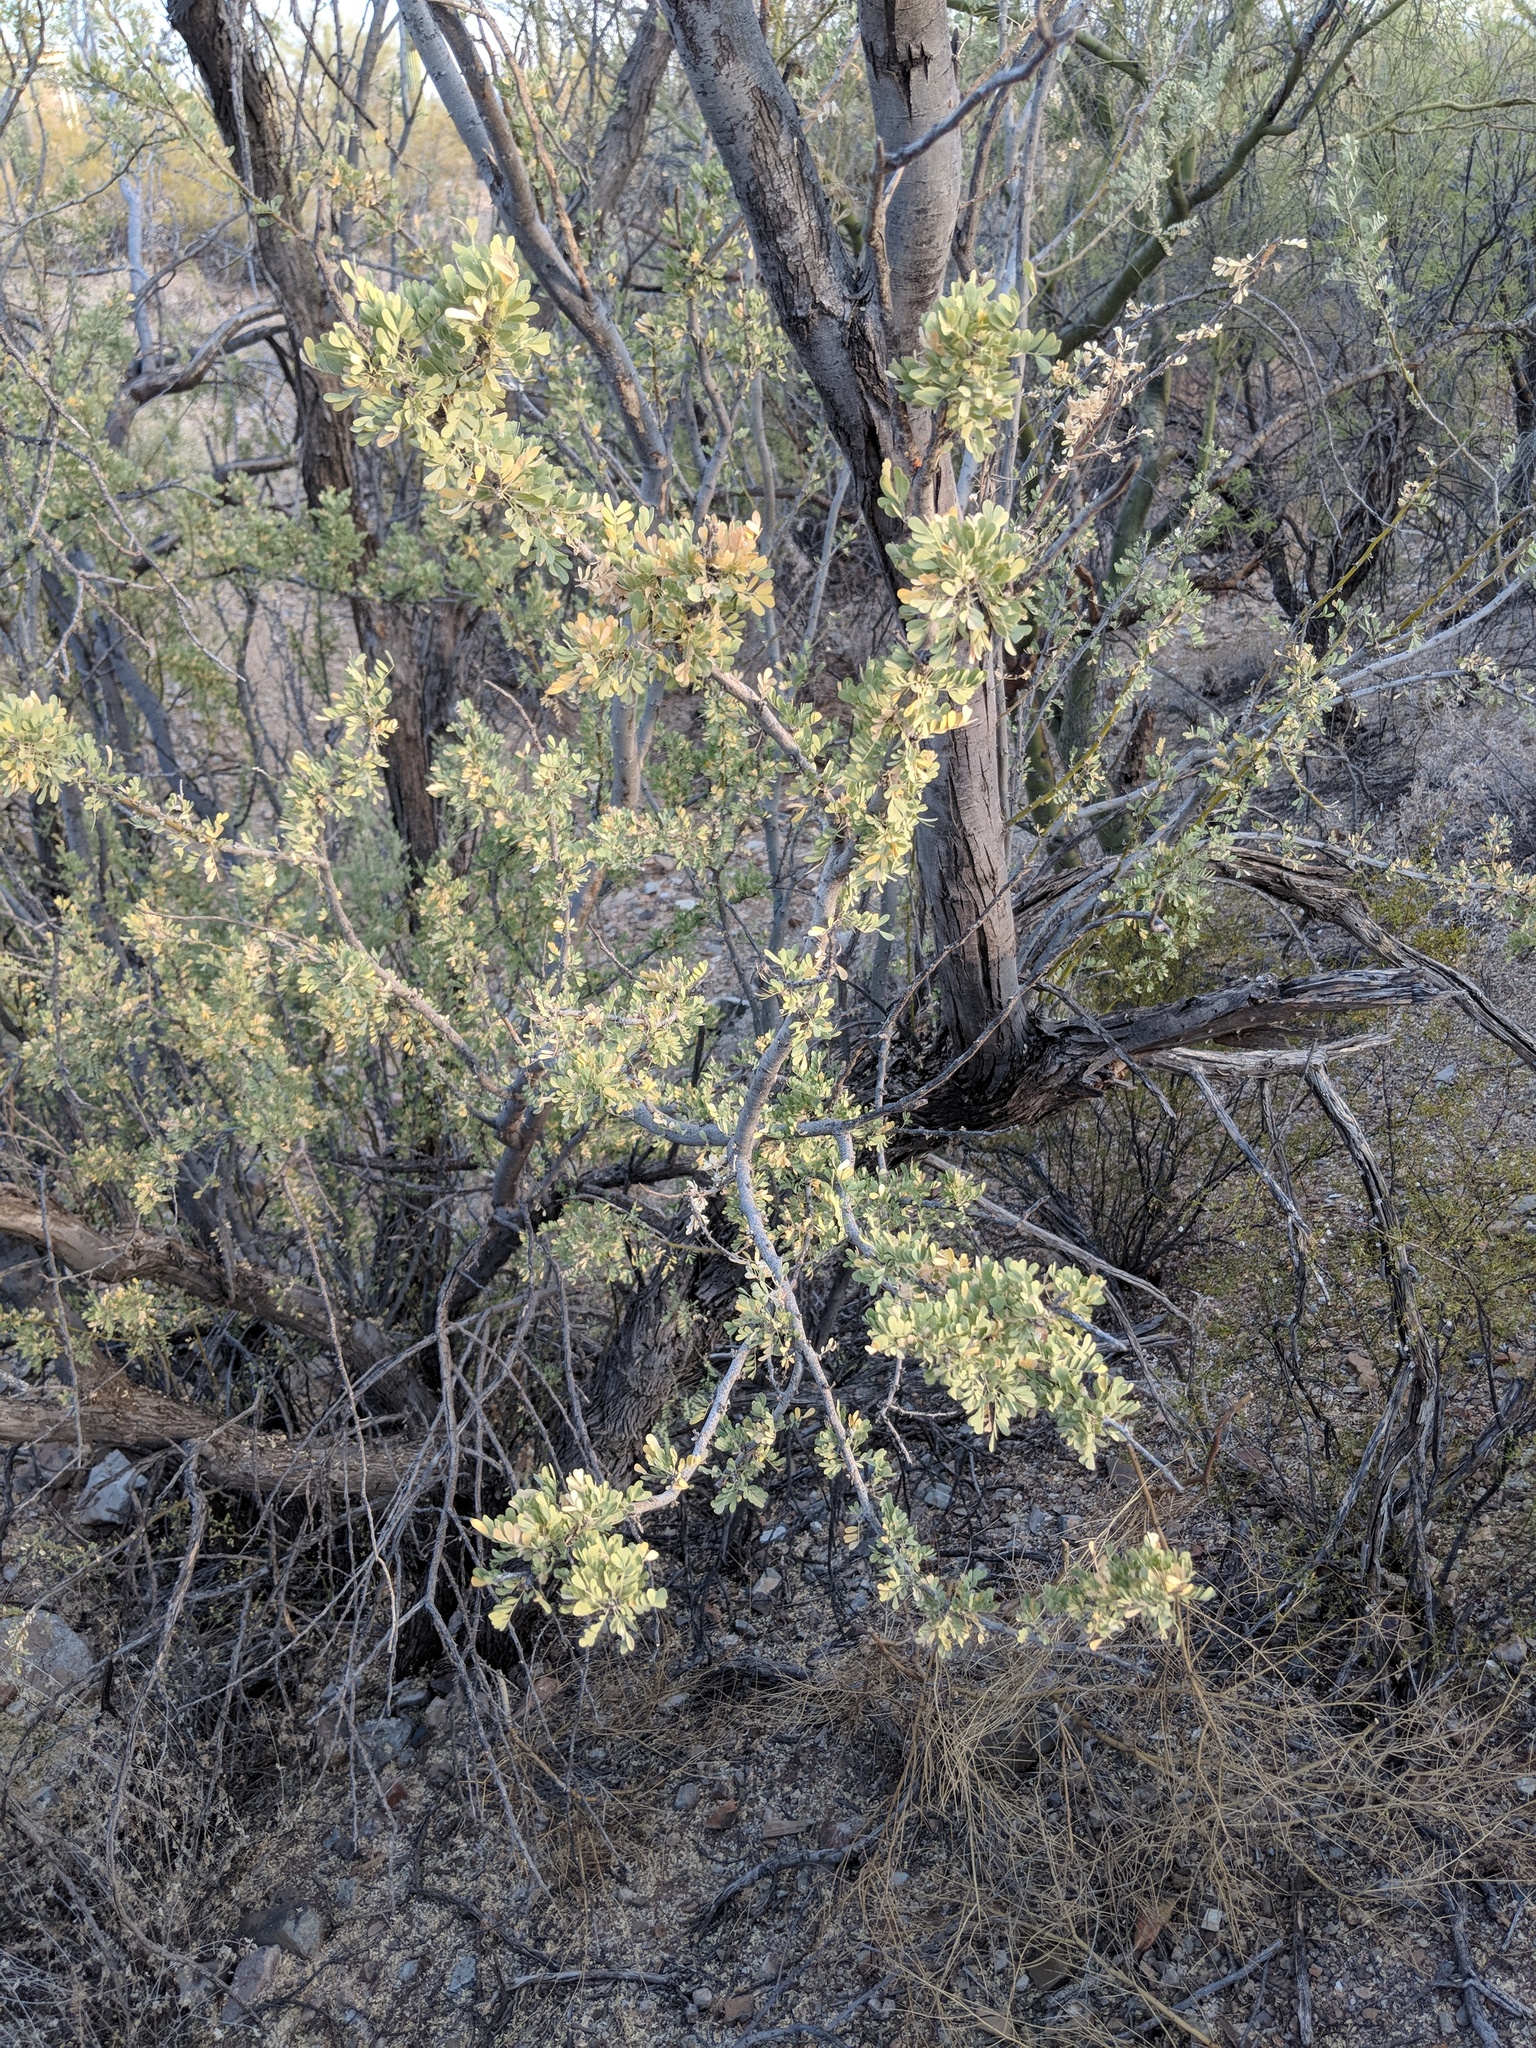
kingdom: Plantae
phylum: Tracheophyta
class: Magnoliopsida
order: Fabales
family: Fabaceae
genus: Olneya
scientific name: Olneya tesota
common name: Desert ironwood
